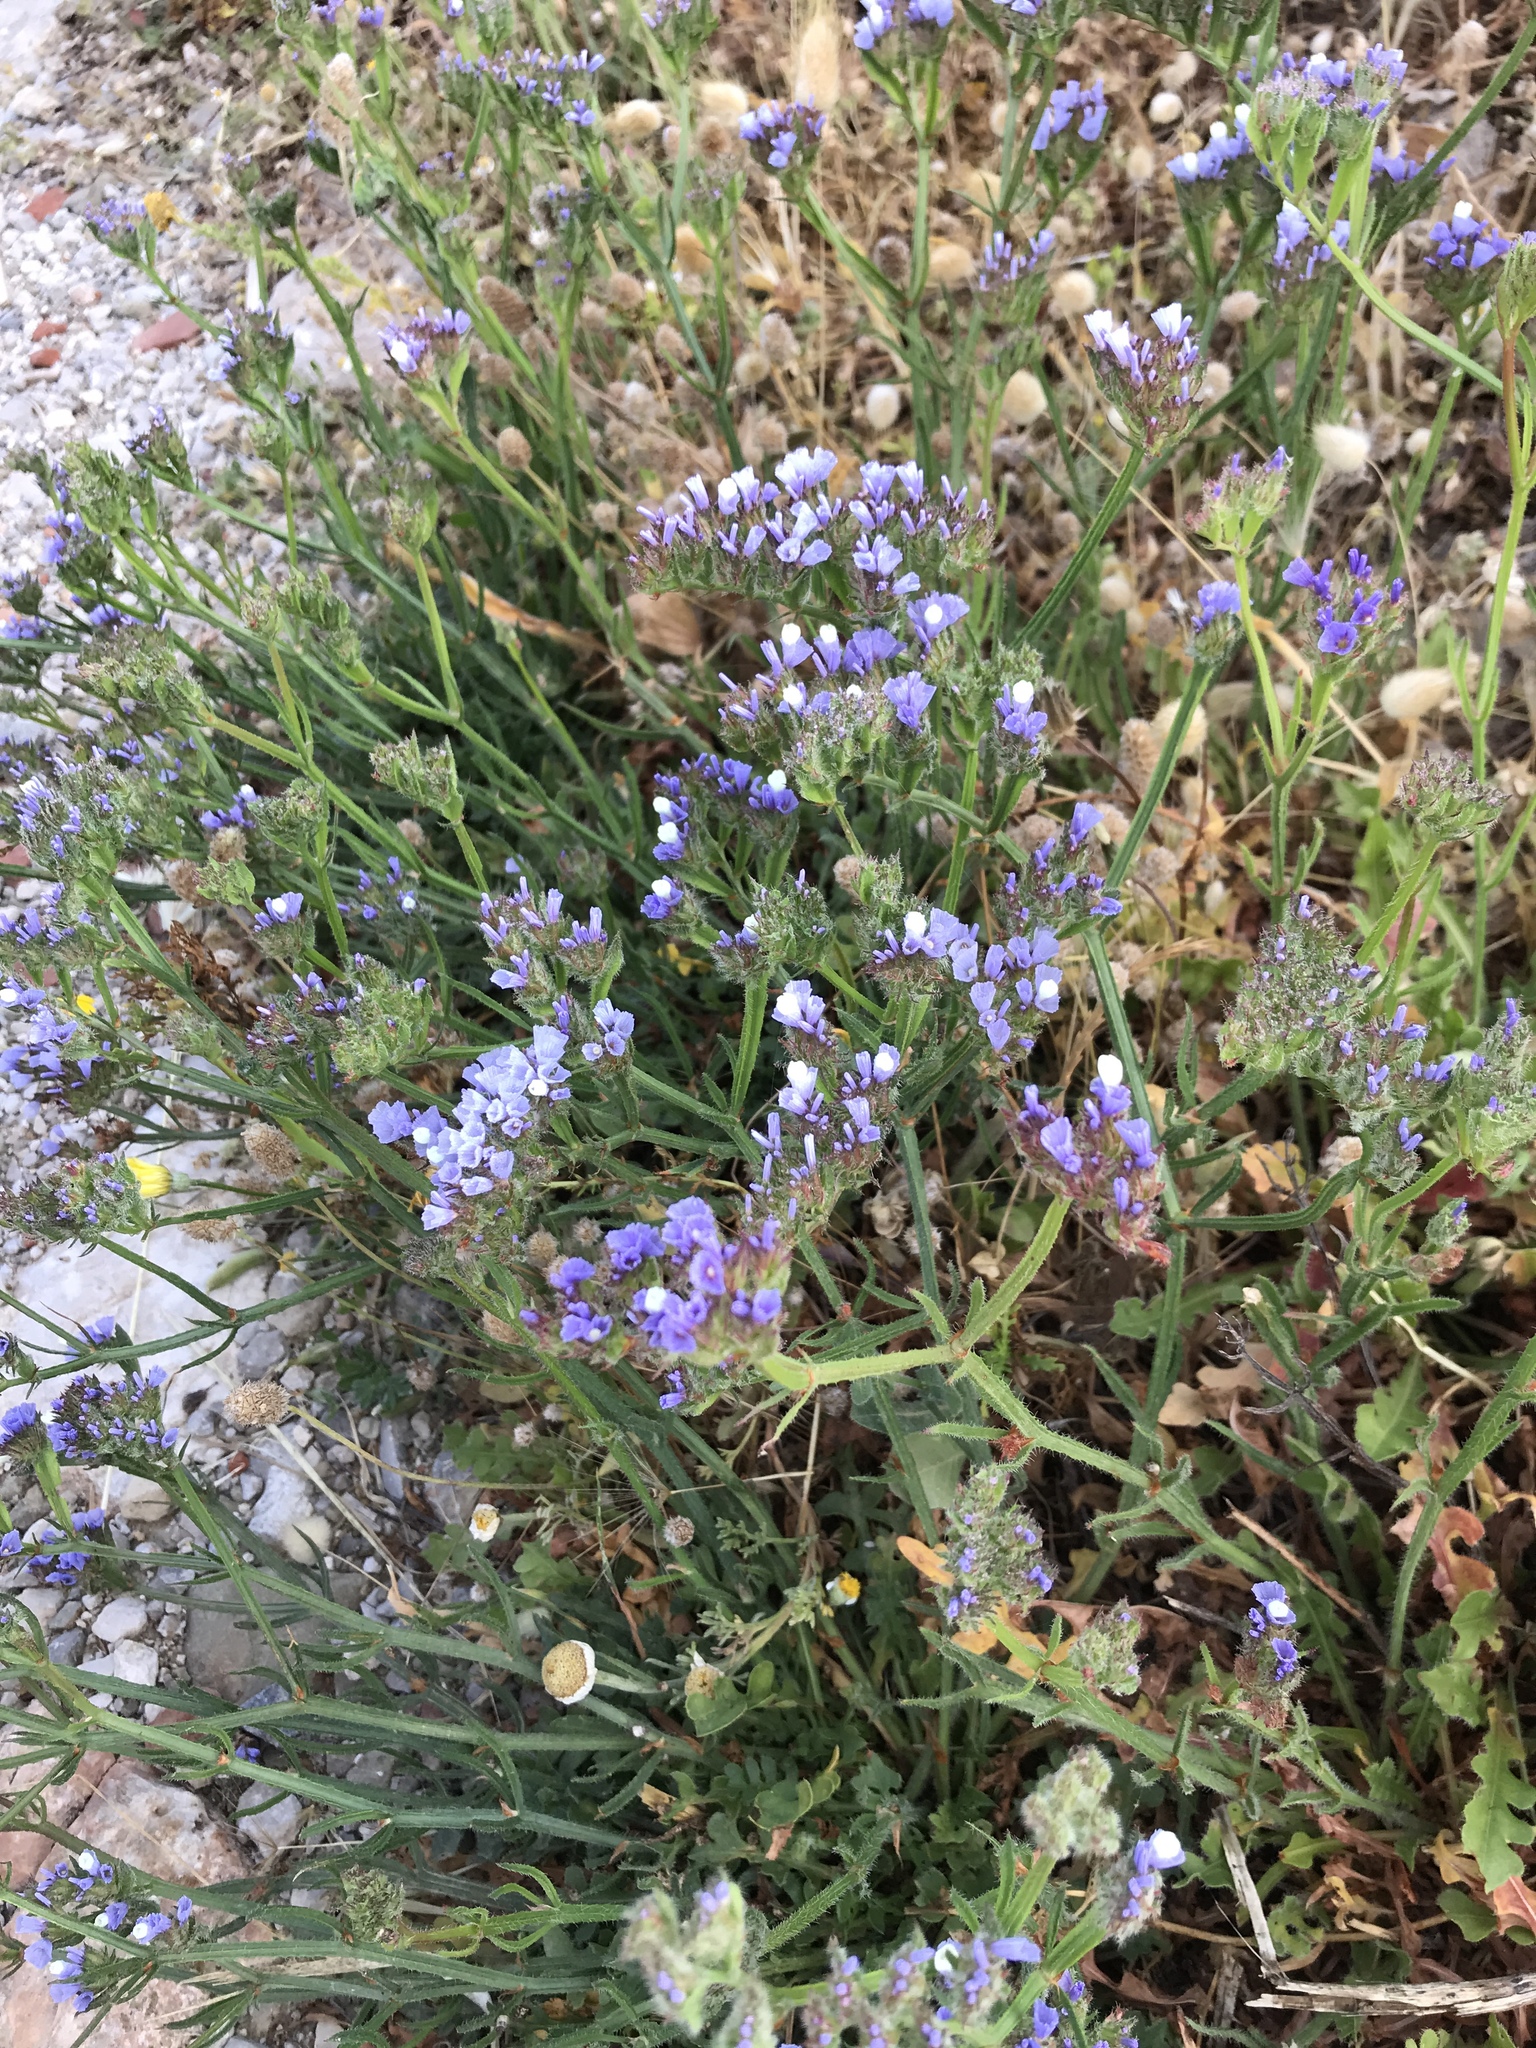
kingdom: Plantae
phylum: Tracheophyta
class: Magnoliopsida
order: Caryophyllales
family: Plumbaginaceae
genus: Limonium
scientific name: Limonium sinuatum
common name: Statice
